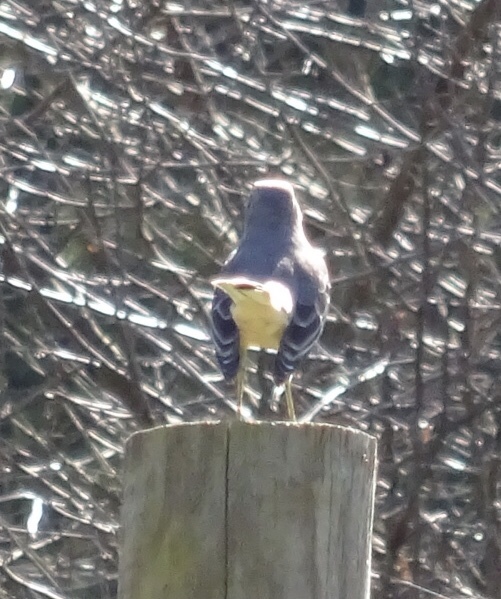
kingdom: Animalia
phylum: Chordata
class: Aves
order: Passeriformes
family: Mimidae
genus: Mimus
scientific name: Mimus polyglottos
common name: Northern mockingbird
